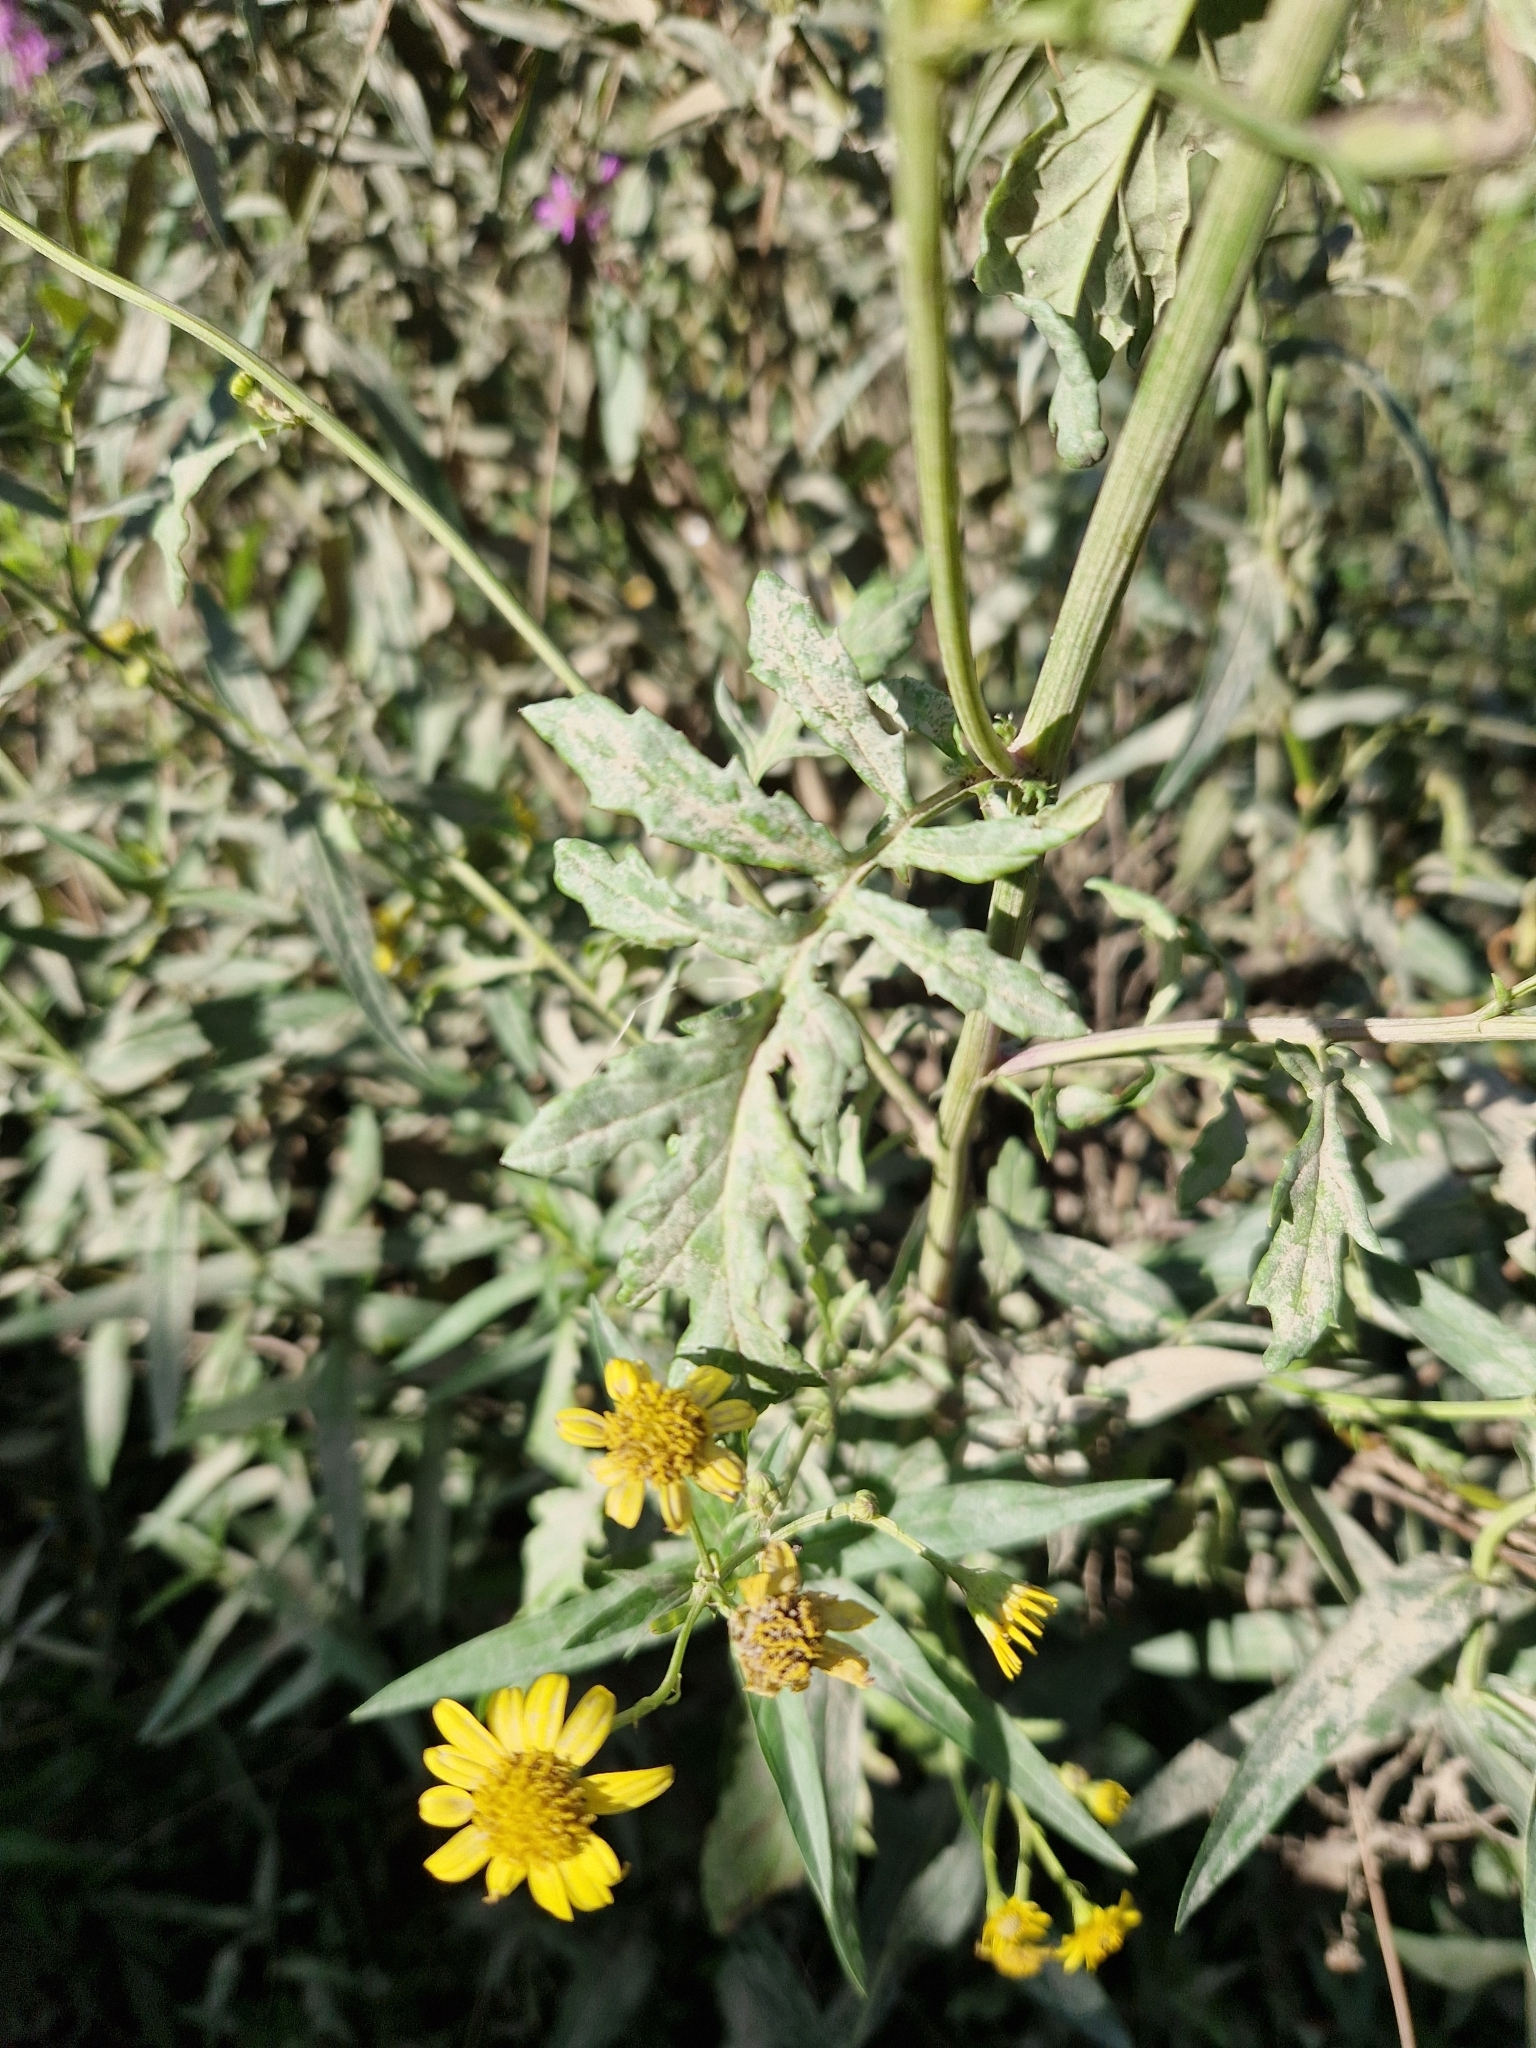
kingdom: Plantae
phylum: Tracheophyta
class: Magnoliopsida
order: Asterales
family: Asteraceae
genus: Jacobaea
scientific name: Jacobaea aquatica
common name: Water ragwort
